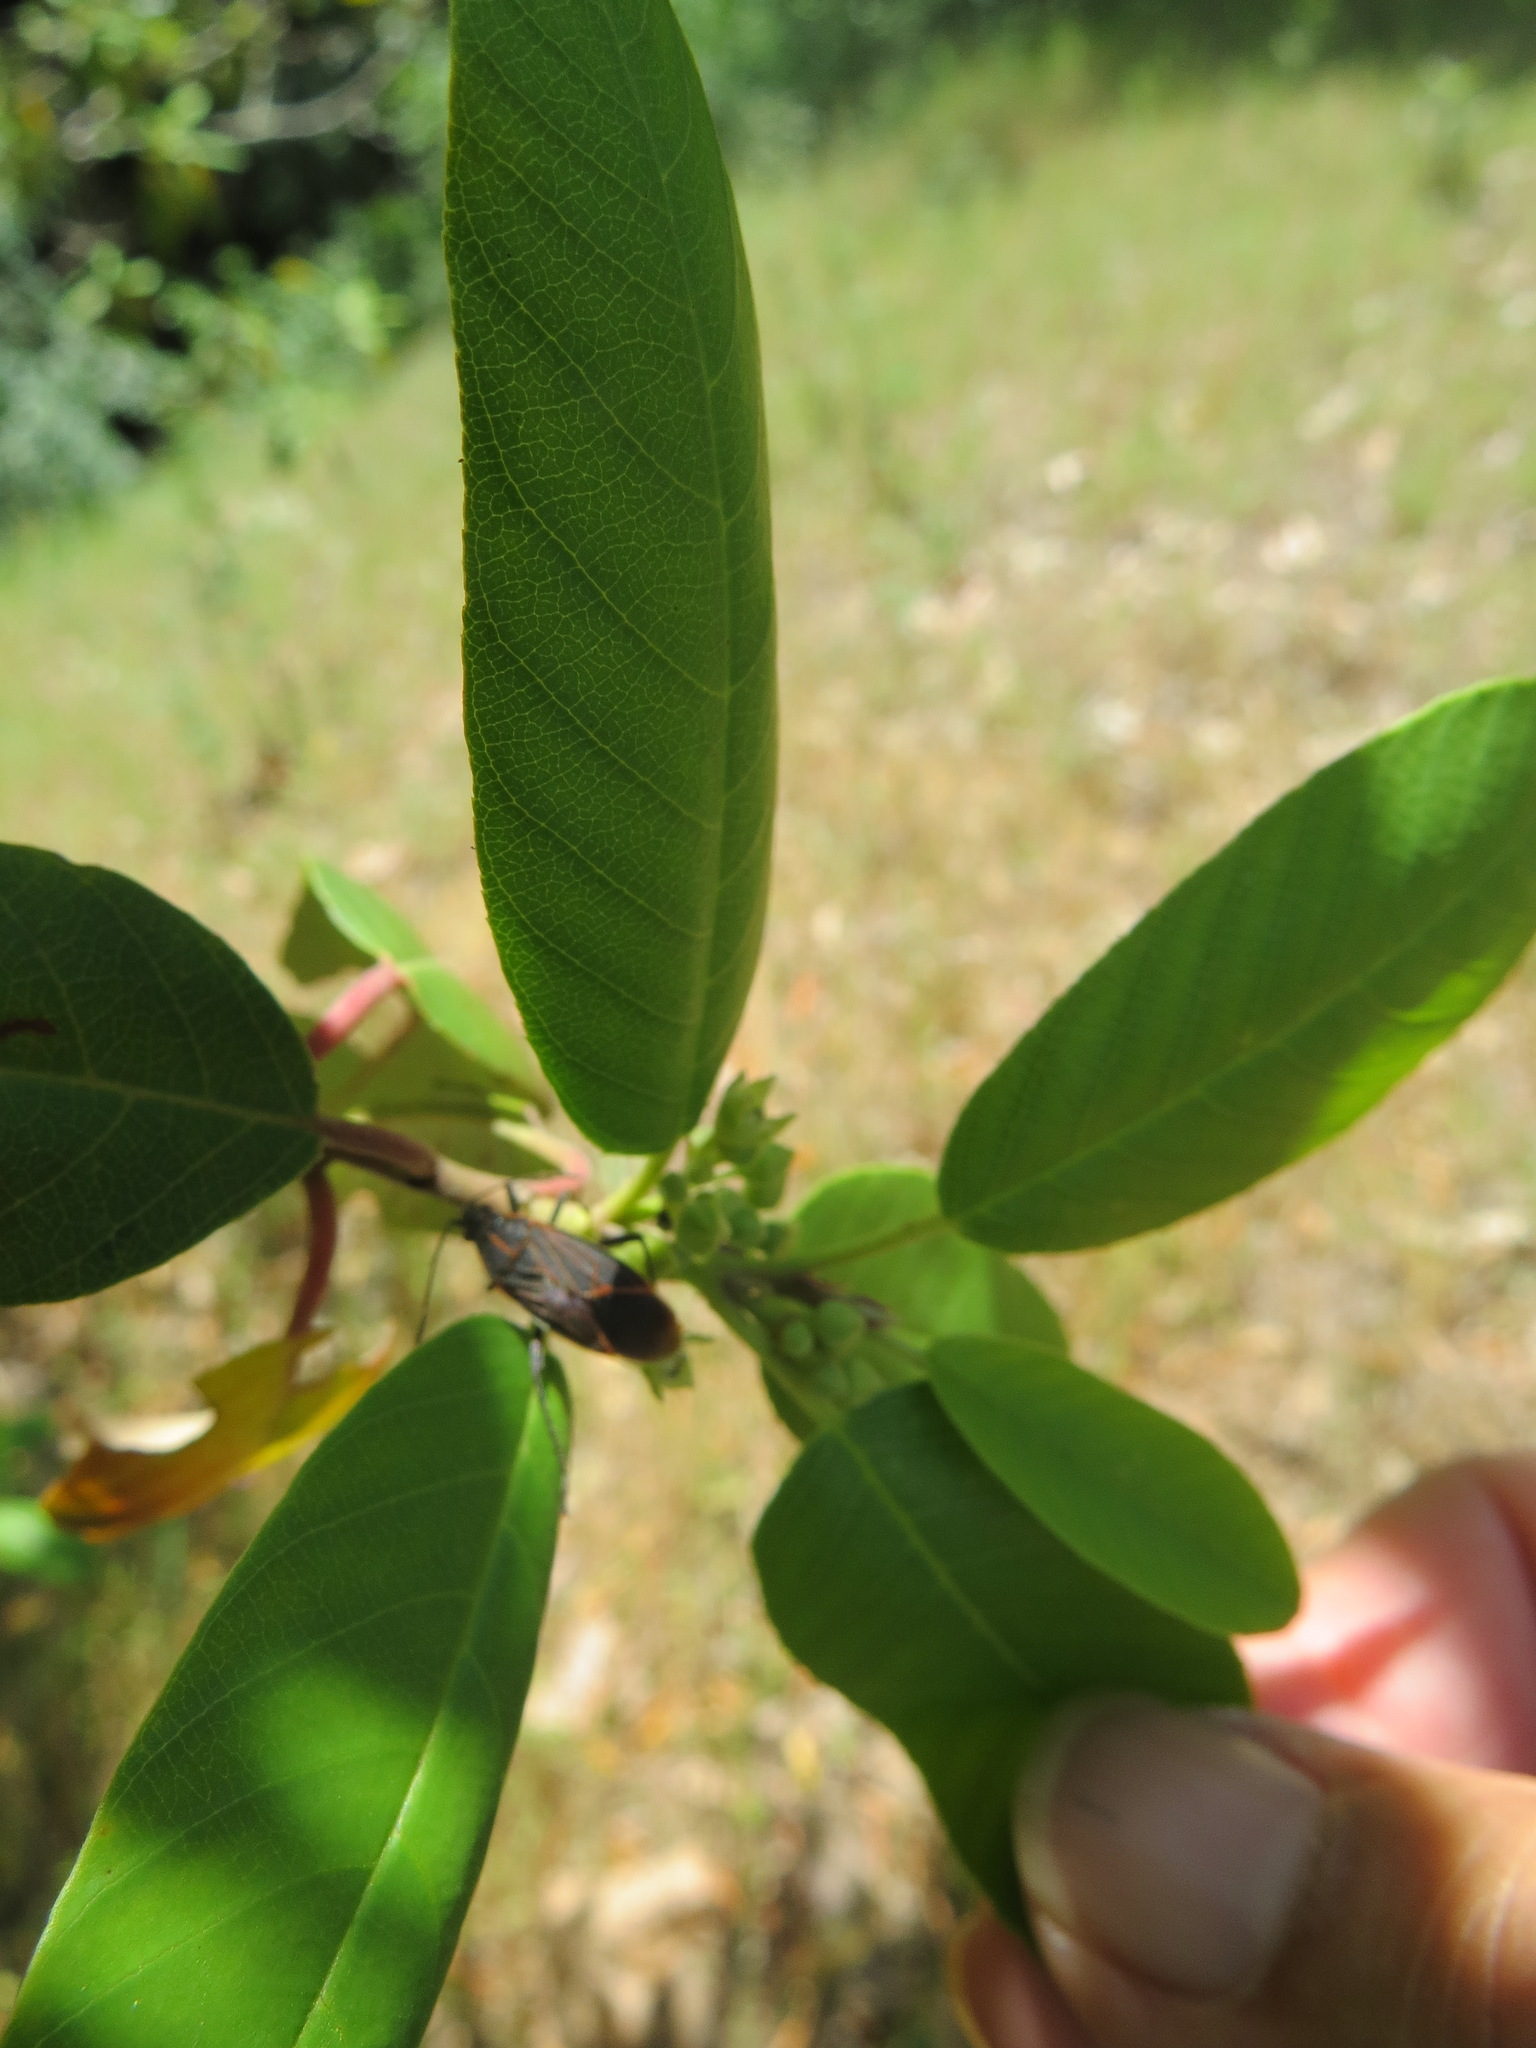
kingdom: Animalia
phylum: Arthropoda
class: Insecta
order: Hemiptera
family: Rhopalidae
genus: Boisea
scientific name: Boisea rubrolineata
